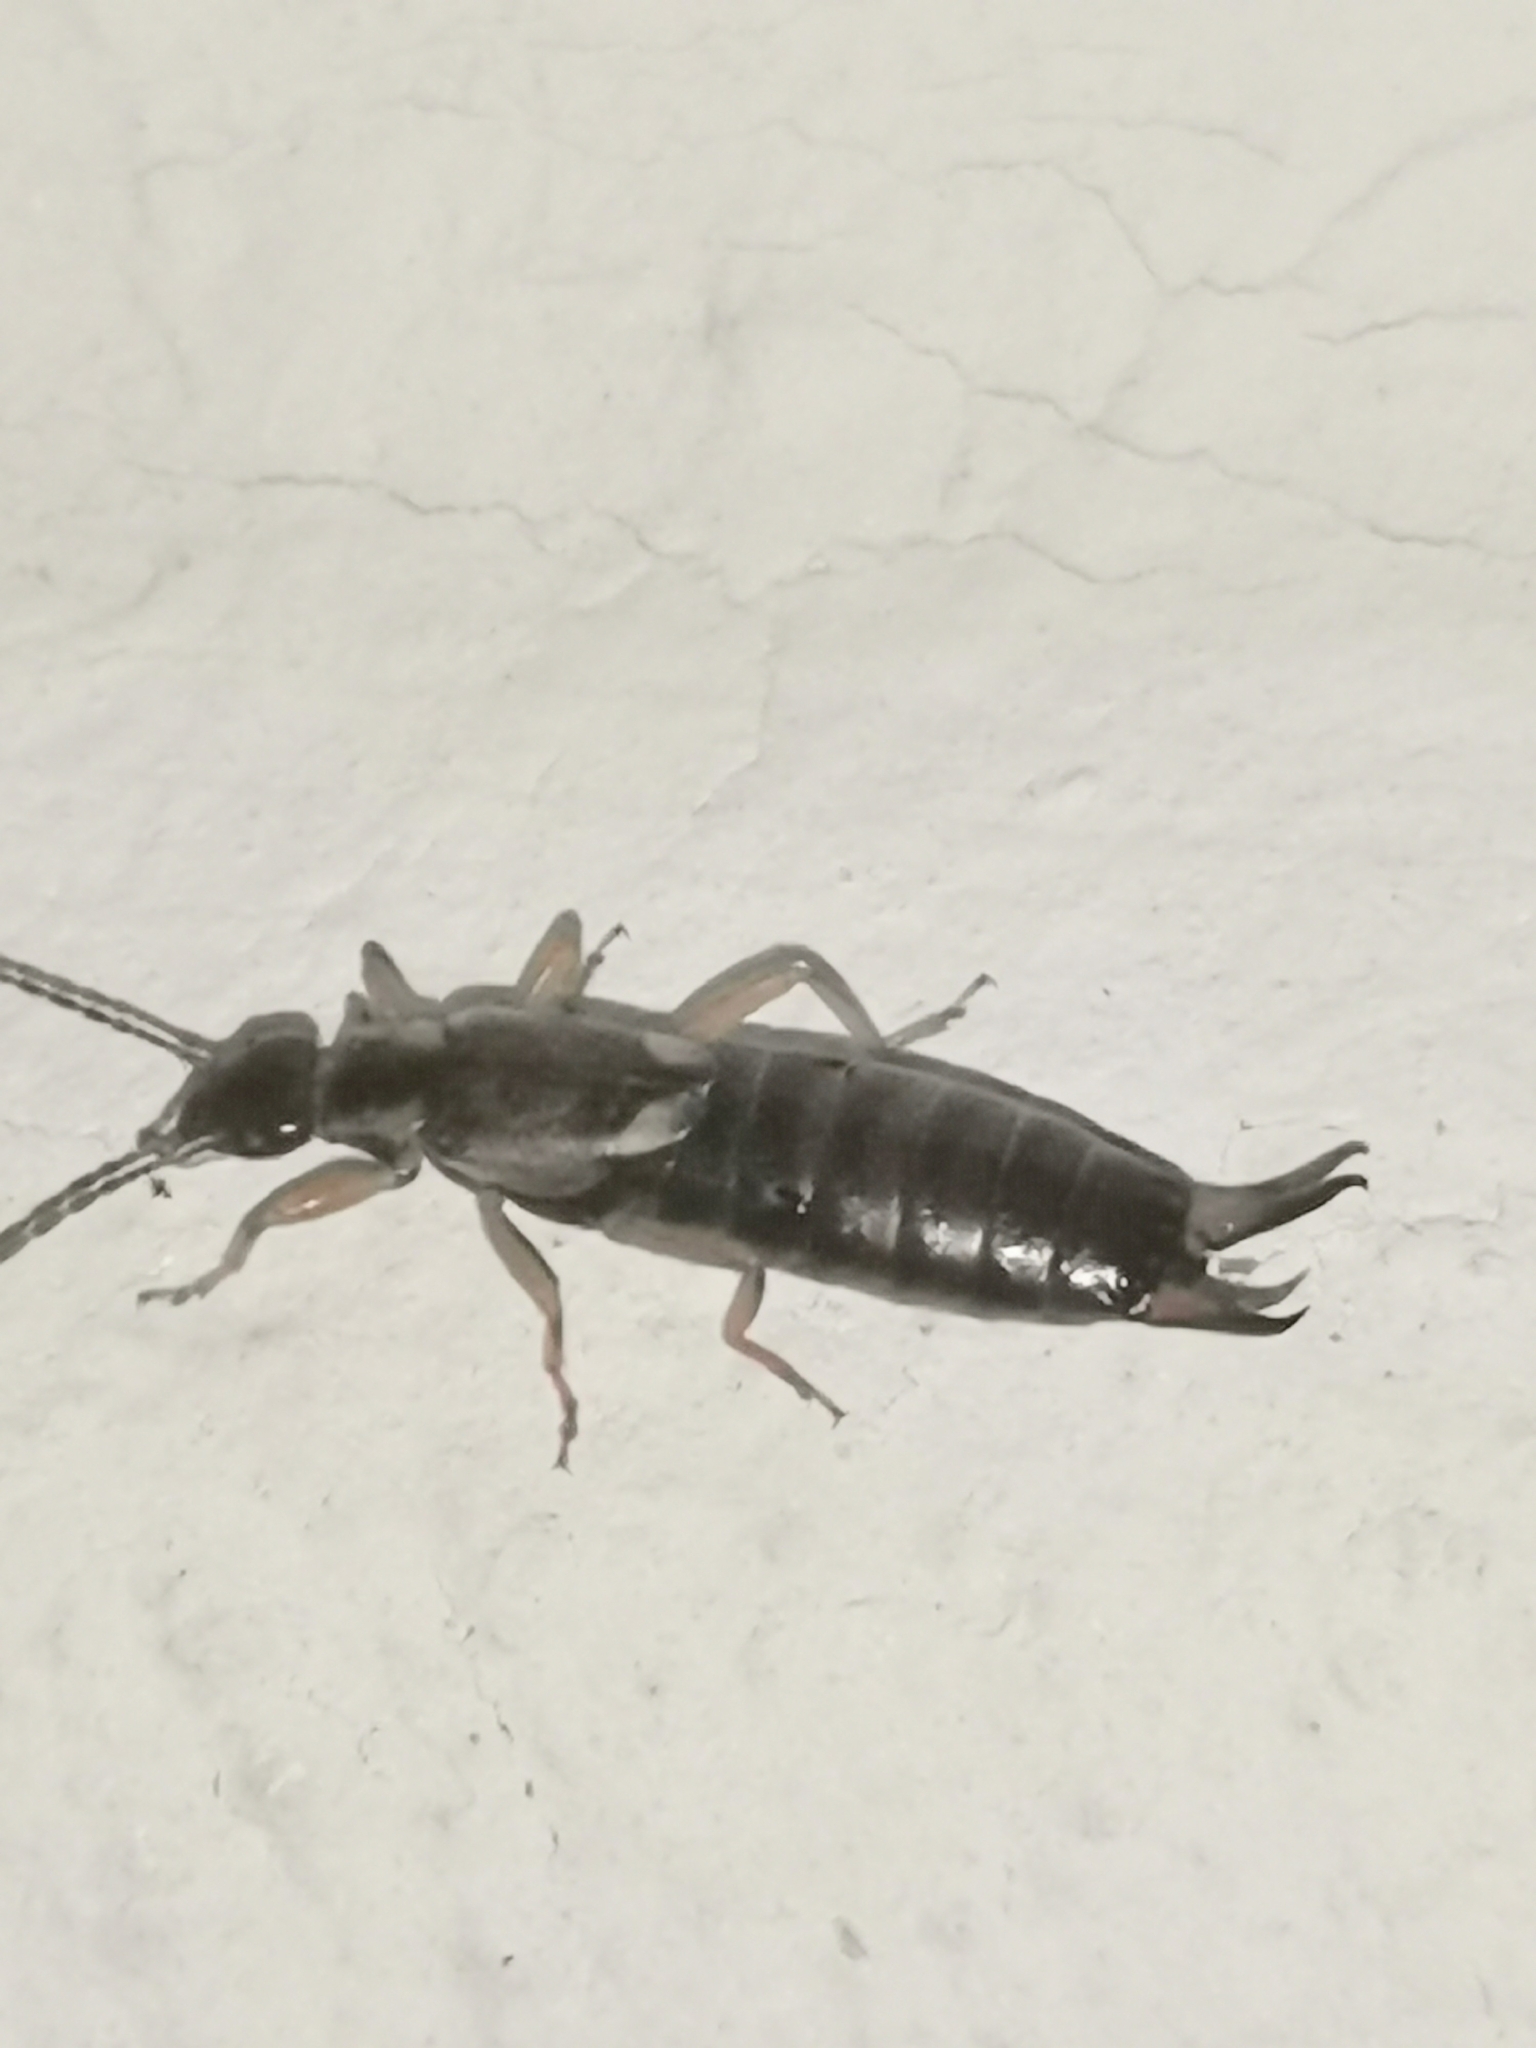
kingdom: Animalia
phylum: Arthropoda
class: Insecta
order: Dermaptera
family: Forficulidae
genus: Forficula
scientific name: Forficula
